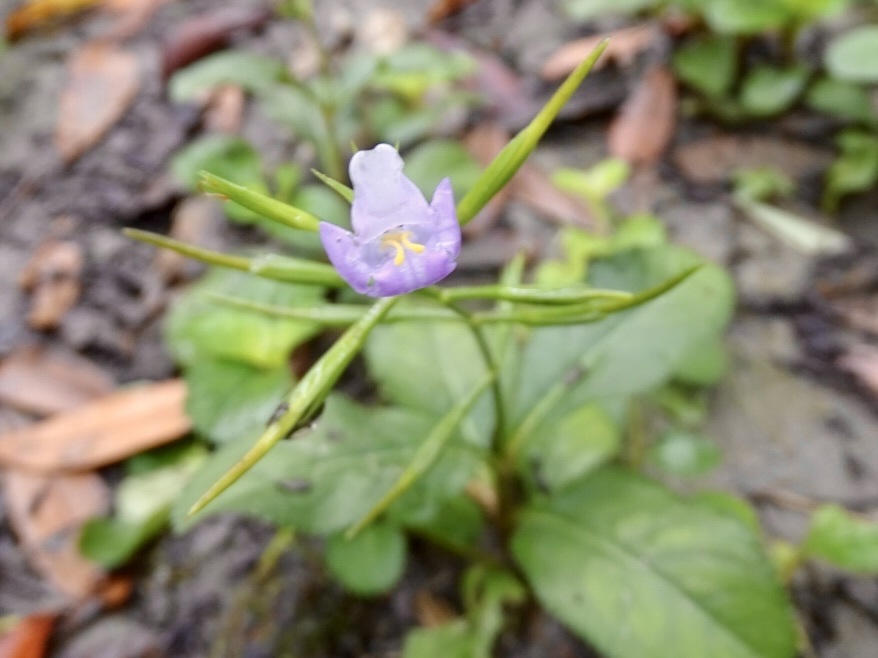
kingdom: Plantae
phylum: Tracheophyta
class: Magnoliopsida
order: Lamiales
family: Linderniaceae
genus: Bonnaya
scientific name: Bonnaya ruelloides
